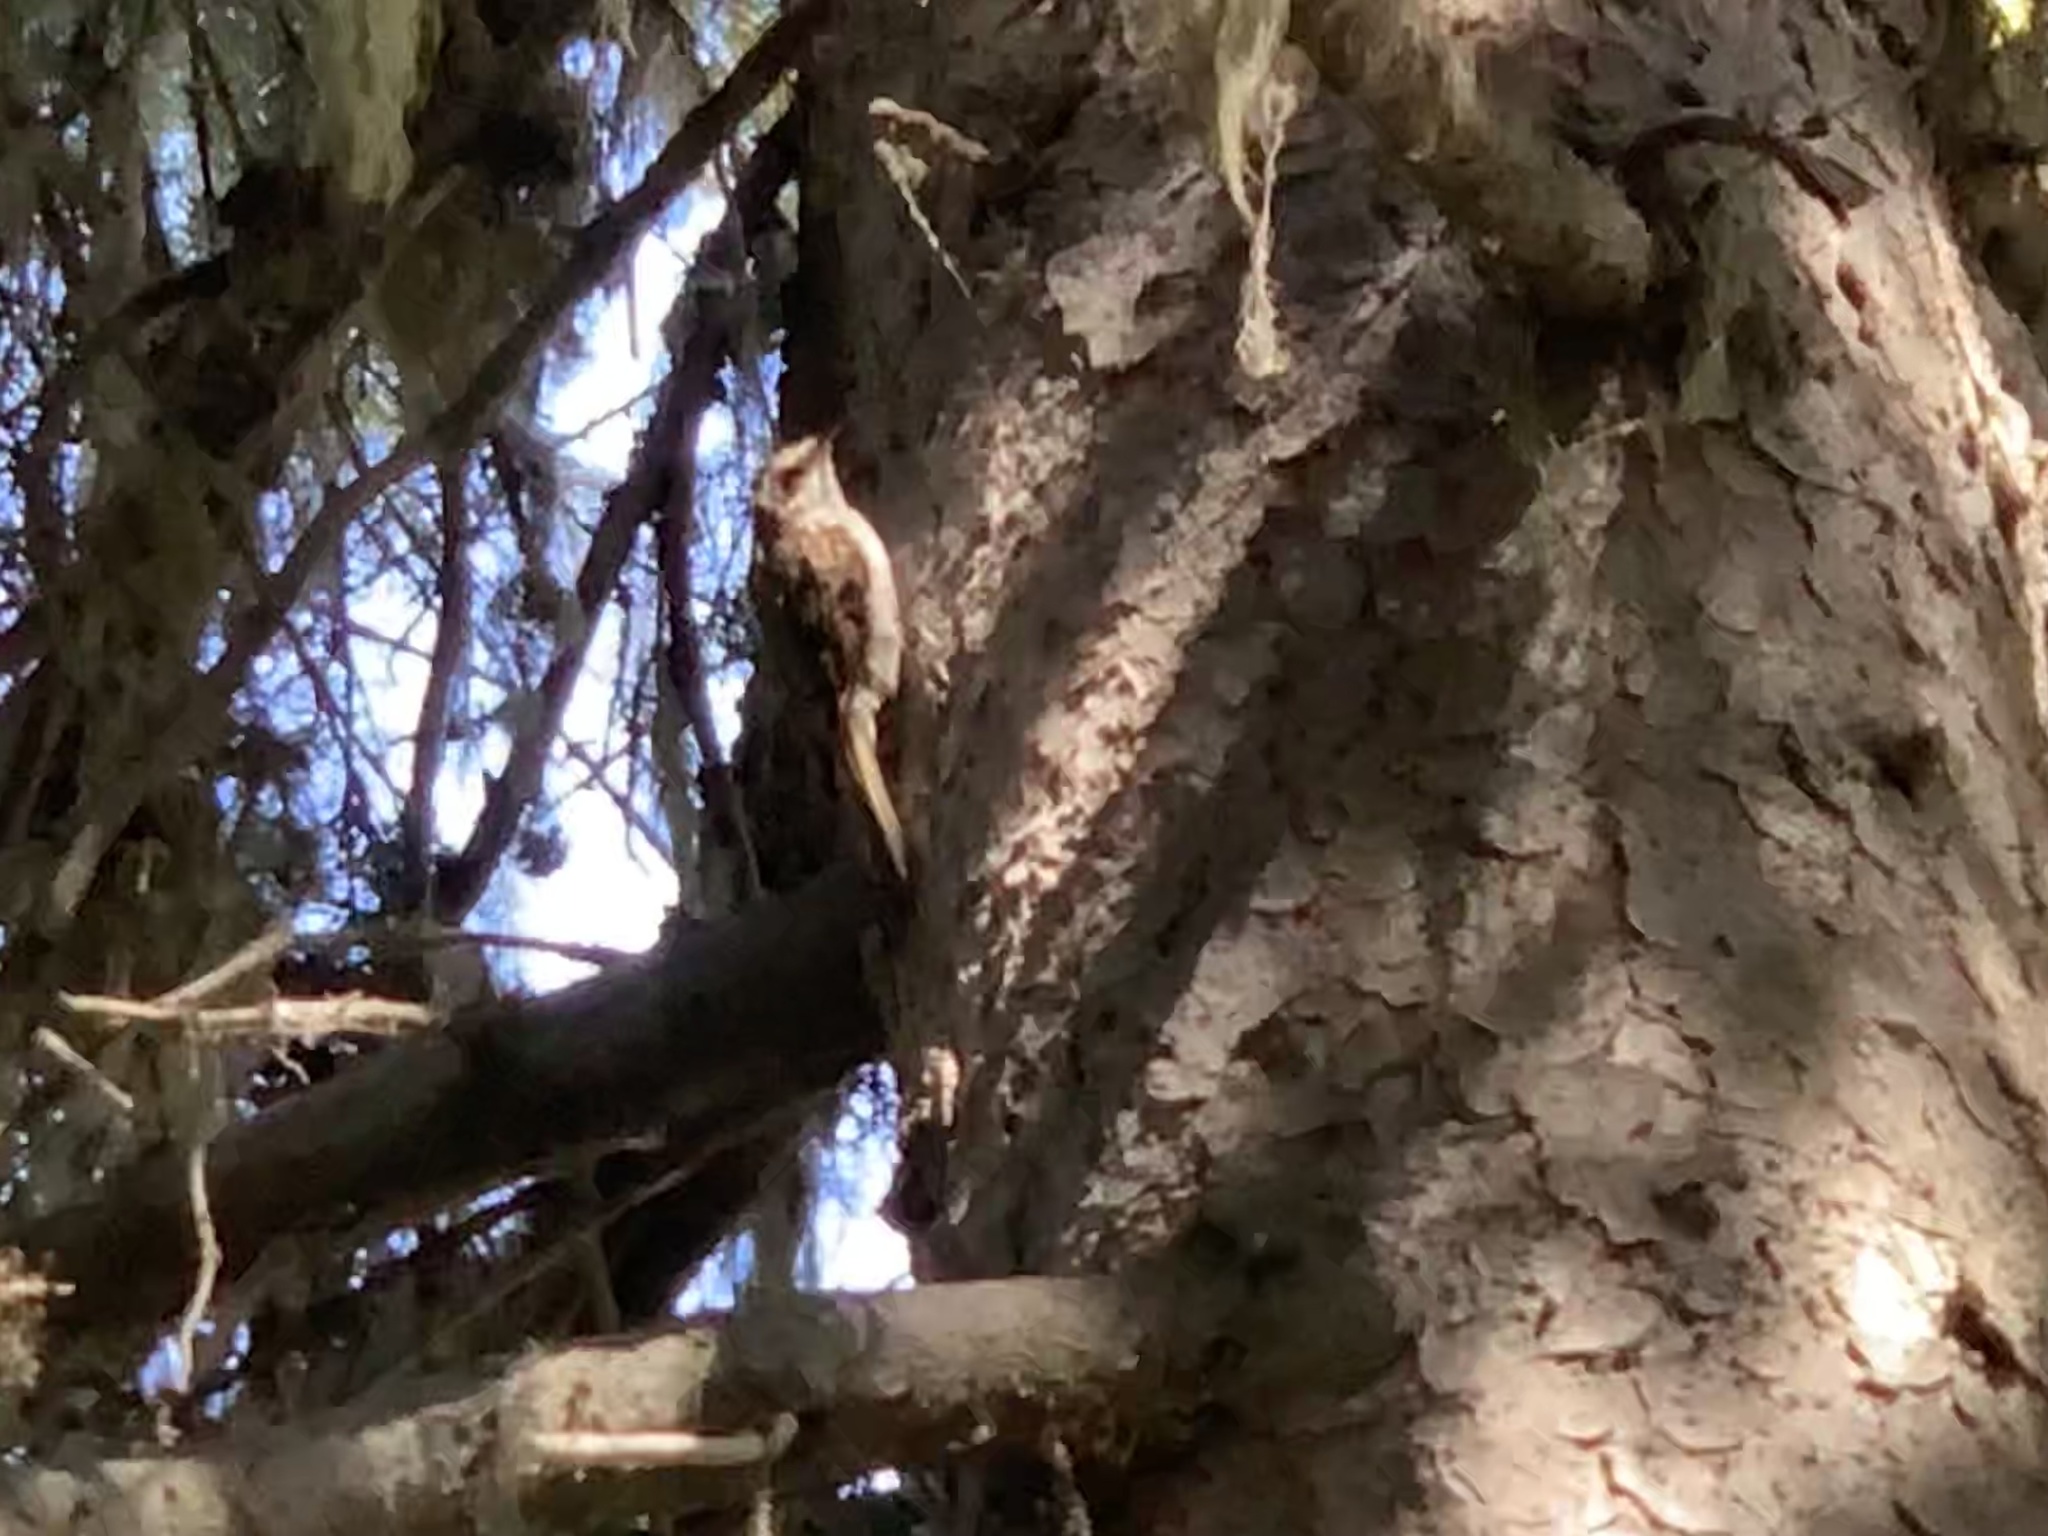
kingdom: Animalia
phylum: Chordata
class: Aves
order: Passeriformes
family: Certhiidae
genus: Certhia
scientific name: Certhia familiaris
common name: Eurasian treecreeper
